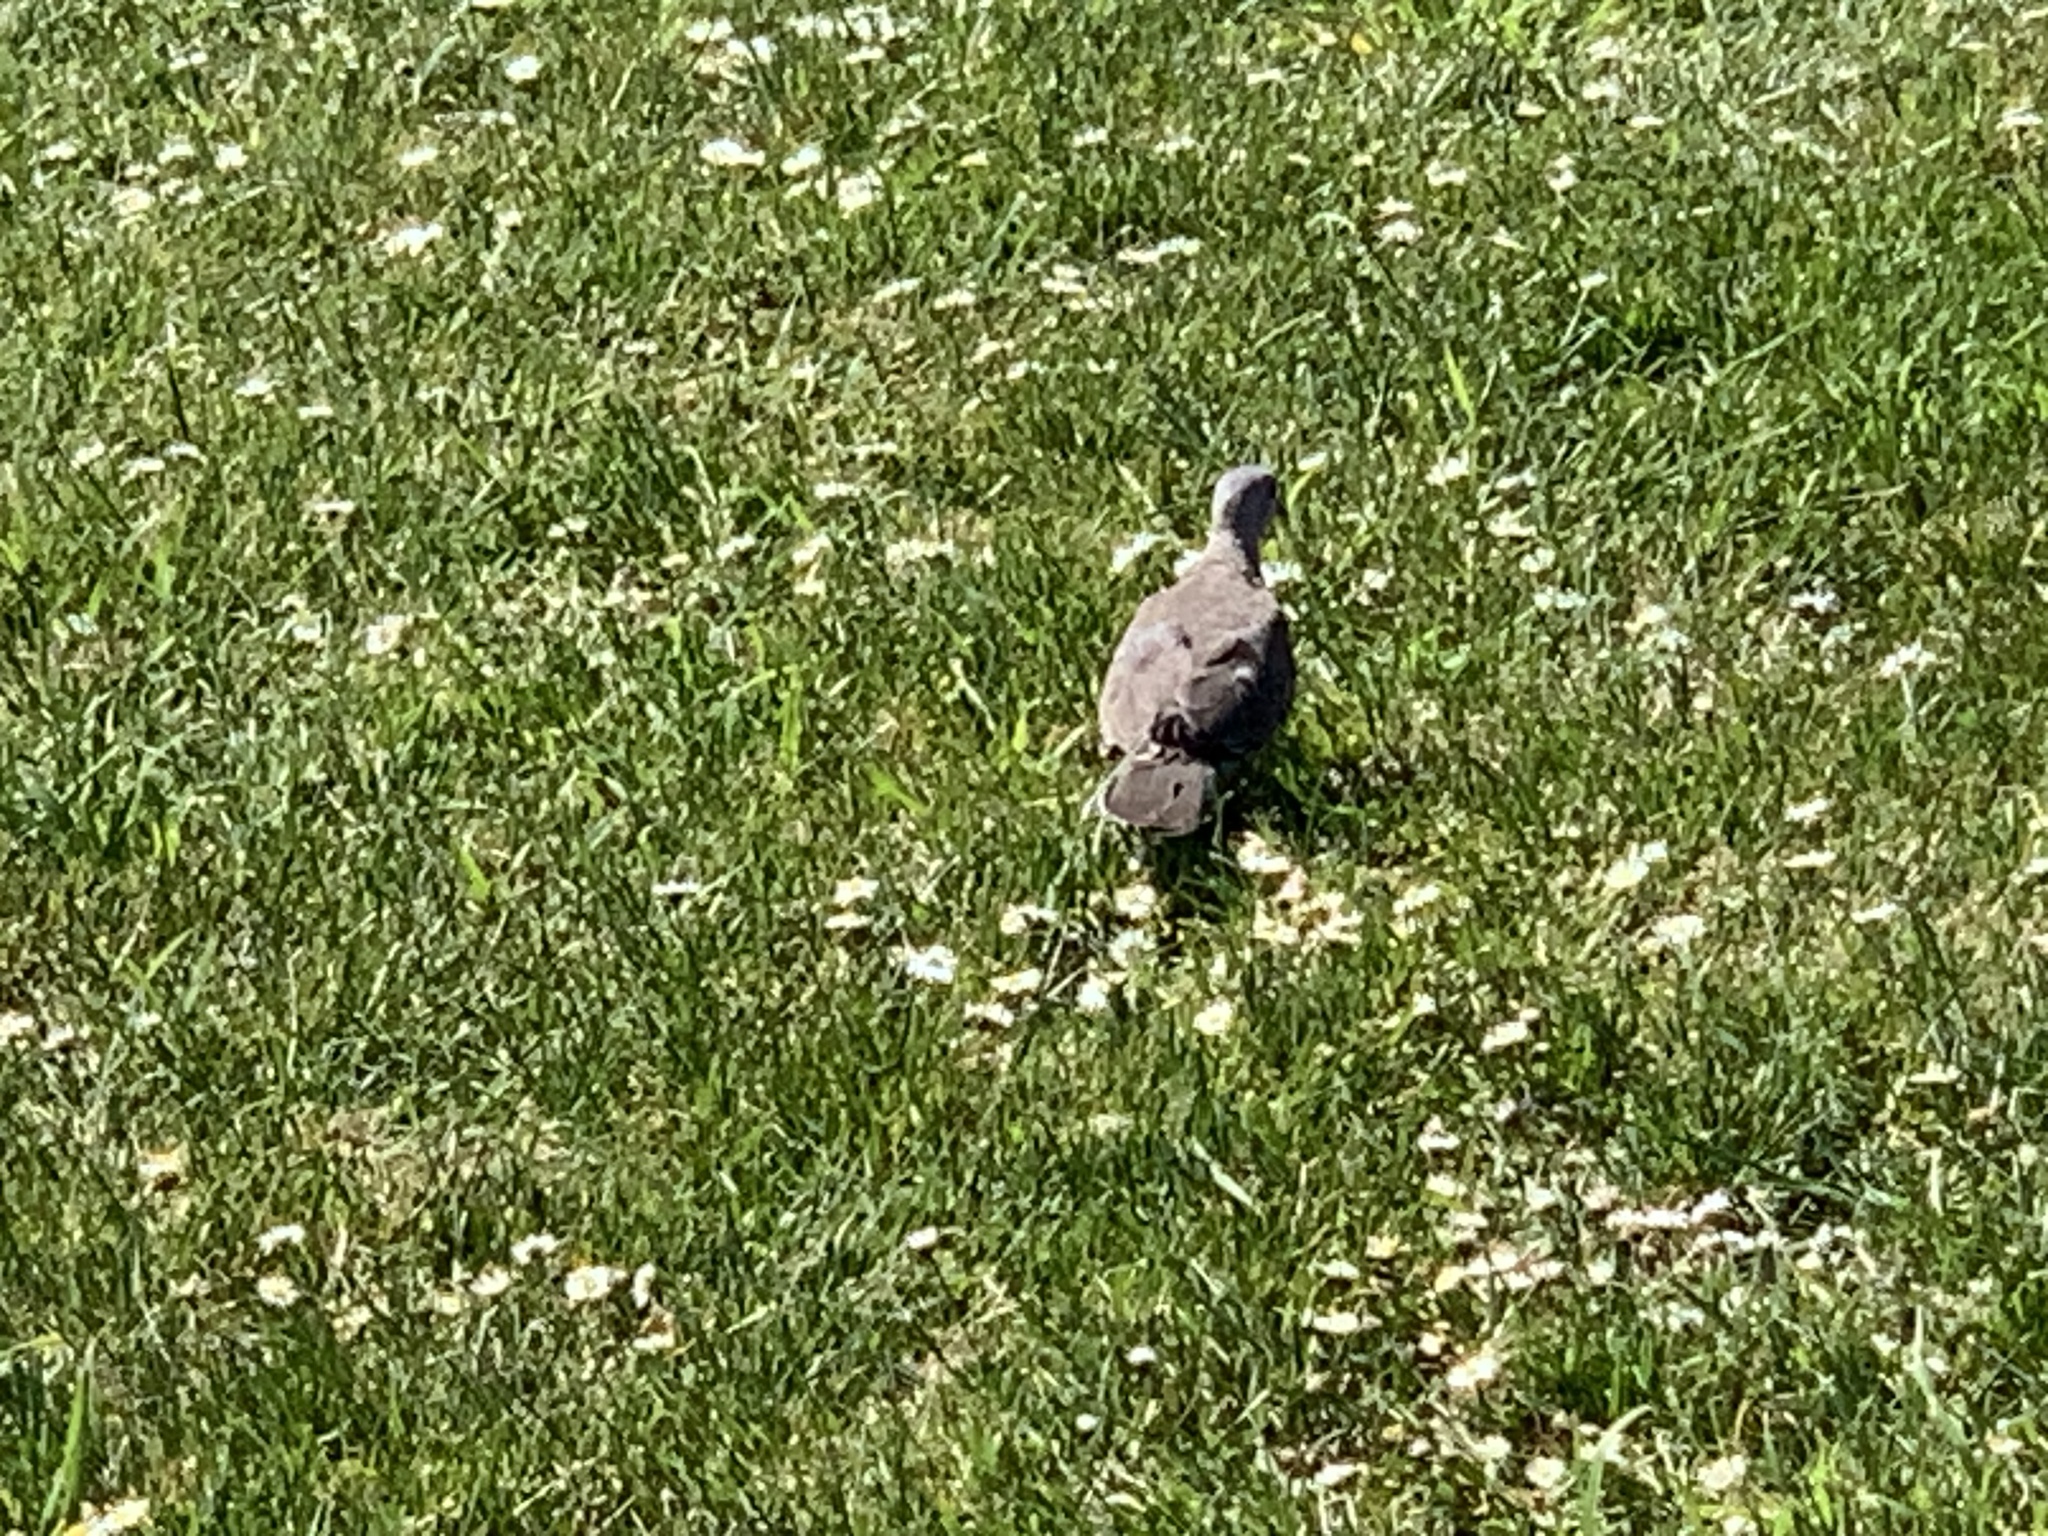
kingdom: Animalia
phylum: Chordata
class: Aves
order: Columbiformes
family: Columbidae
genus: Spilopelia
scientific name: Spilopelia chinensis
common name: Spotted dove
